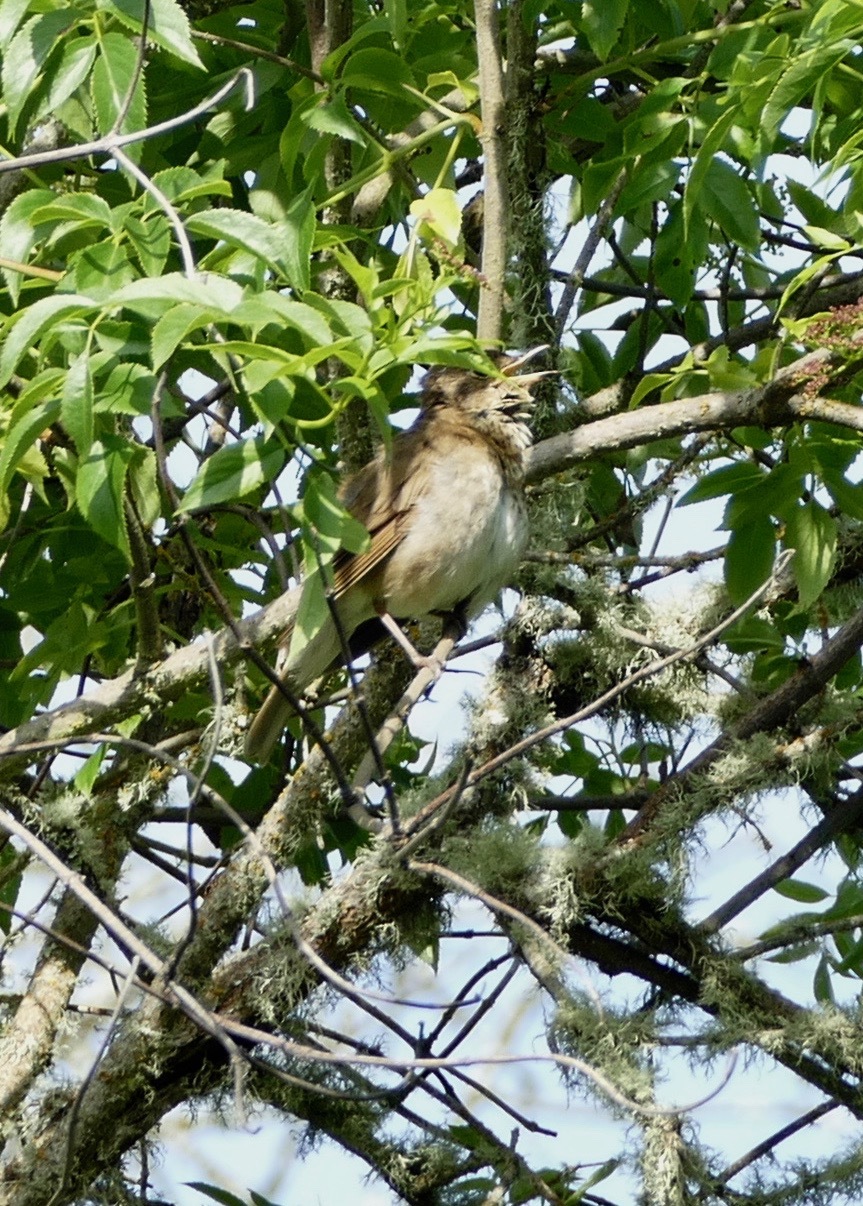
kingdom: Animalia
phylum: Chordata
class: Aves
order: Passeriformes
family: Turdidae
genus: Catharus
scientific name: Catharus ustulatus
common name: Swainson's thrush
